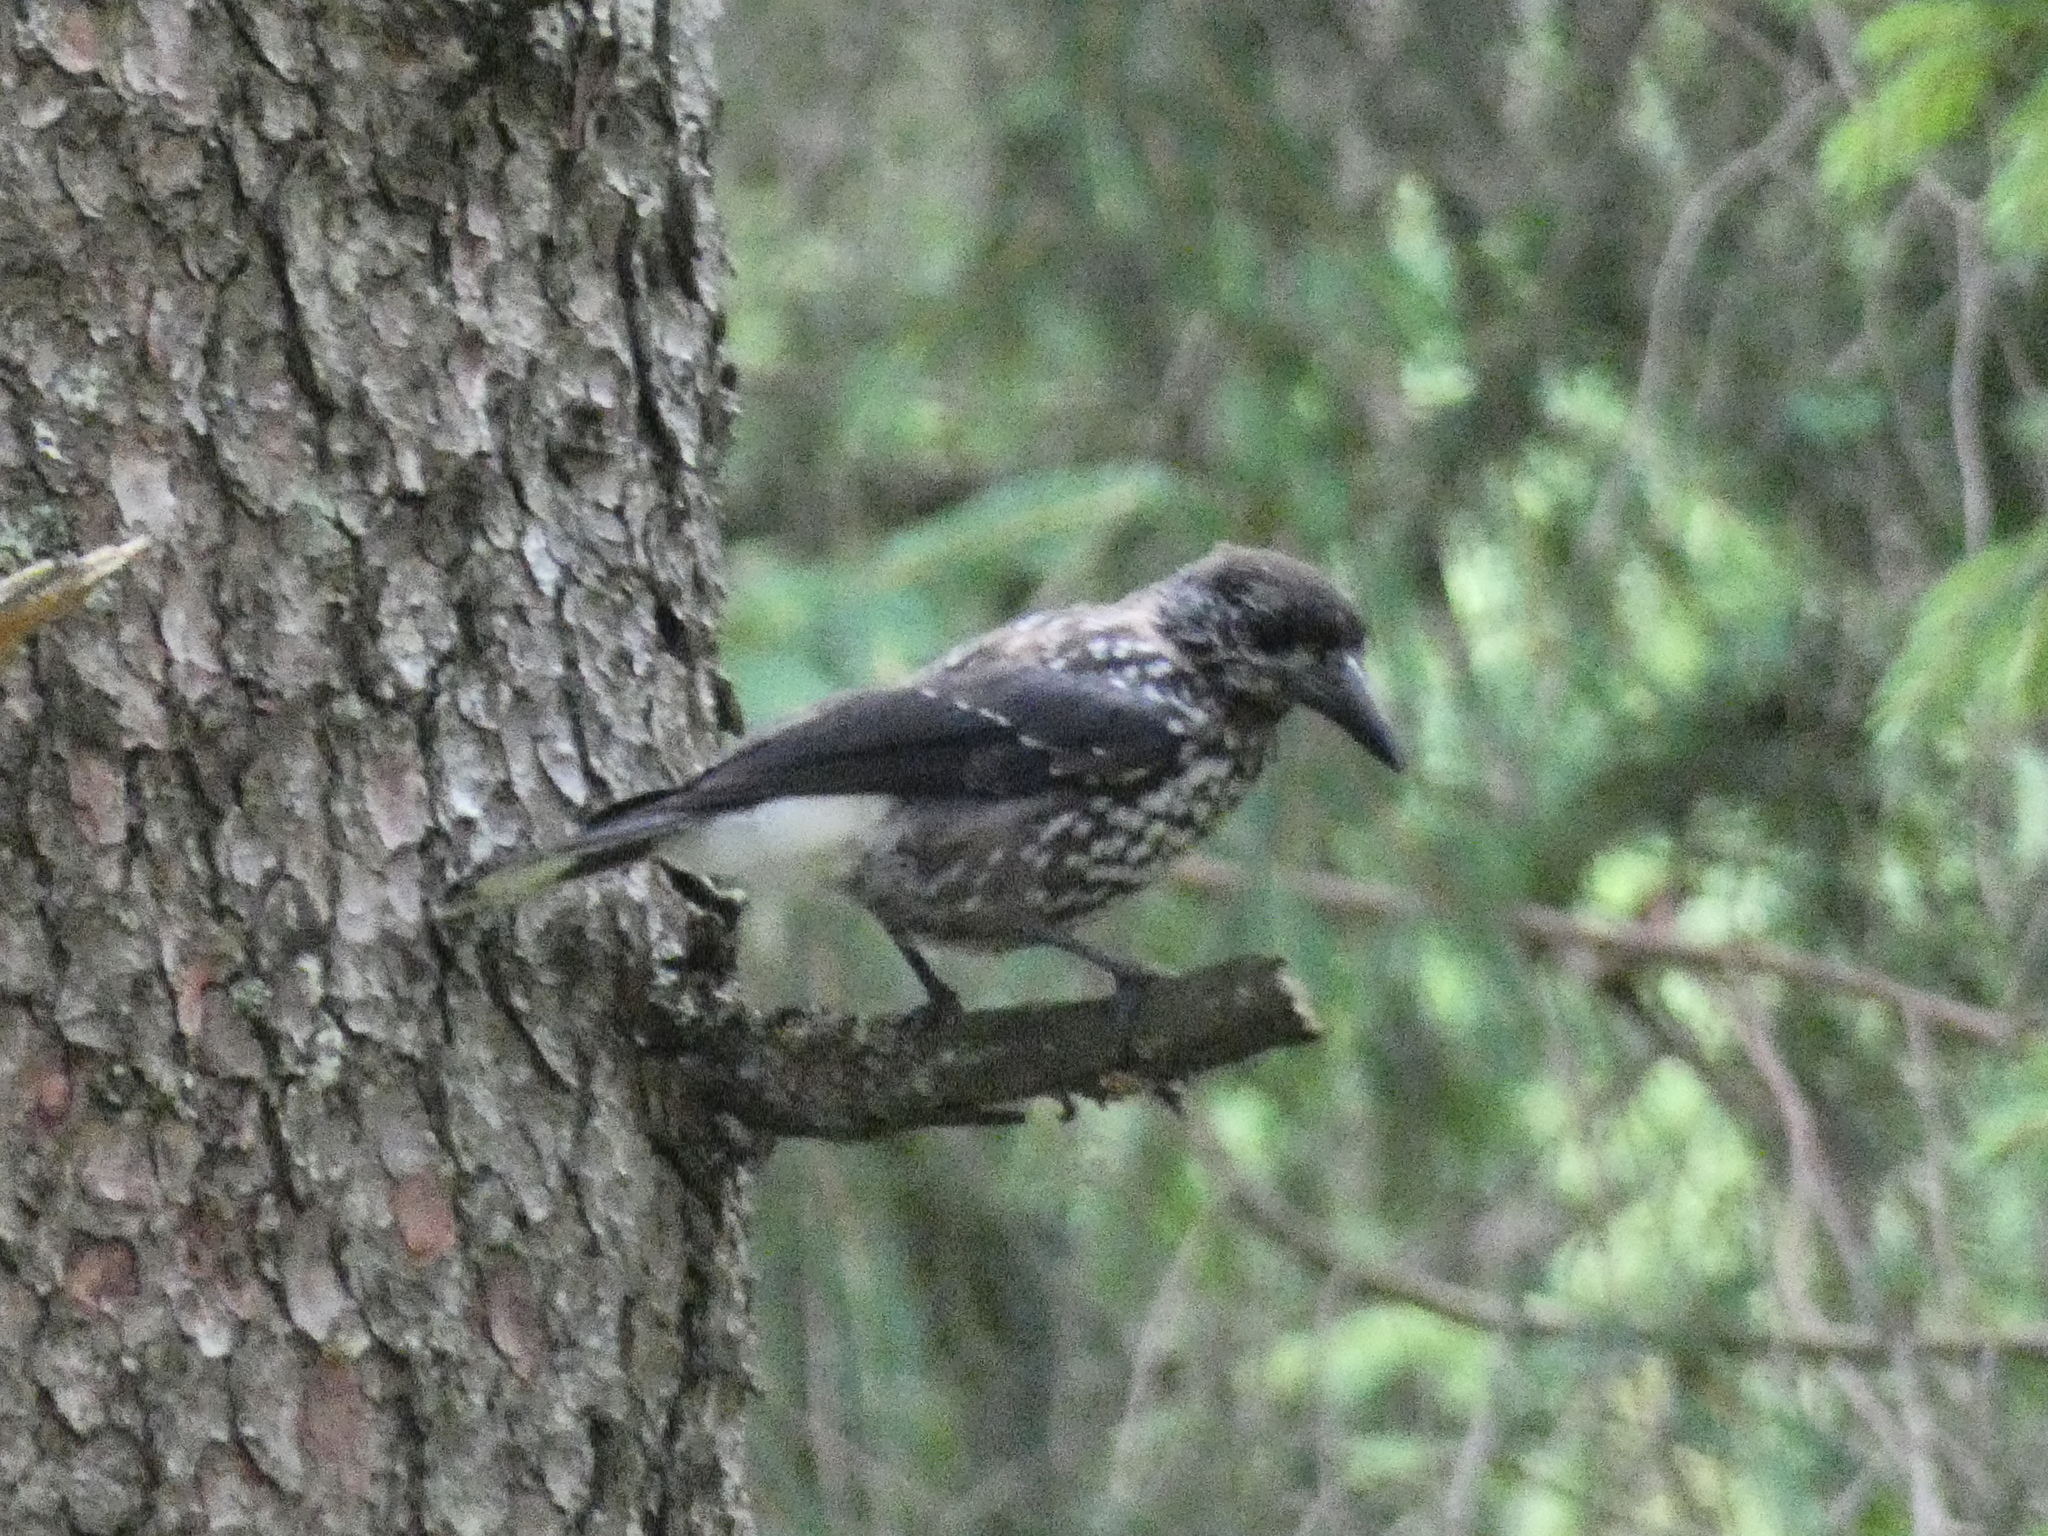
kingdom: Animalia
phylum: Chordata
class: Aves
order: Passeriformes
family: Corvidae
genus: Nucifraga
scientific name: Nucifraga caryocatactes
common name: Spotted nutcracker
